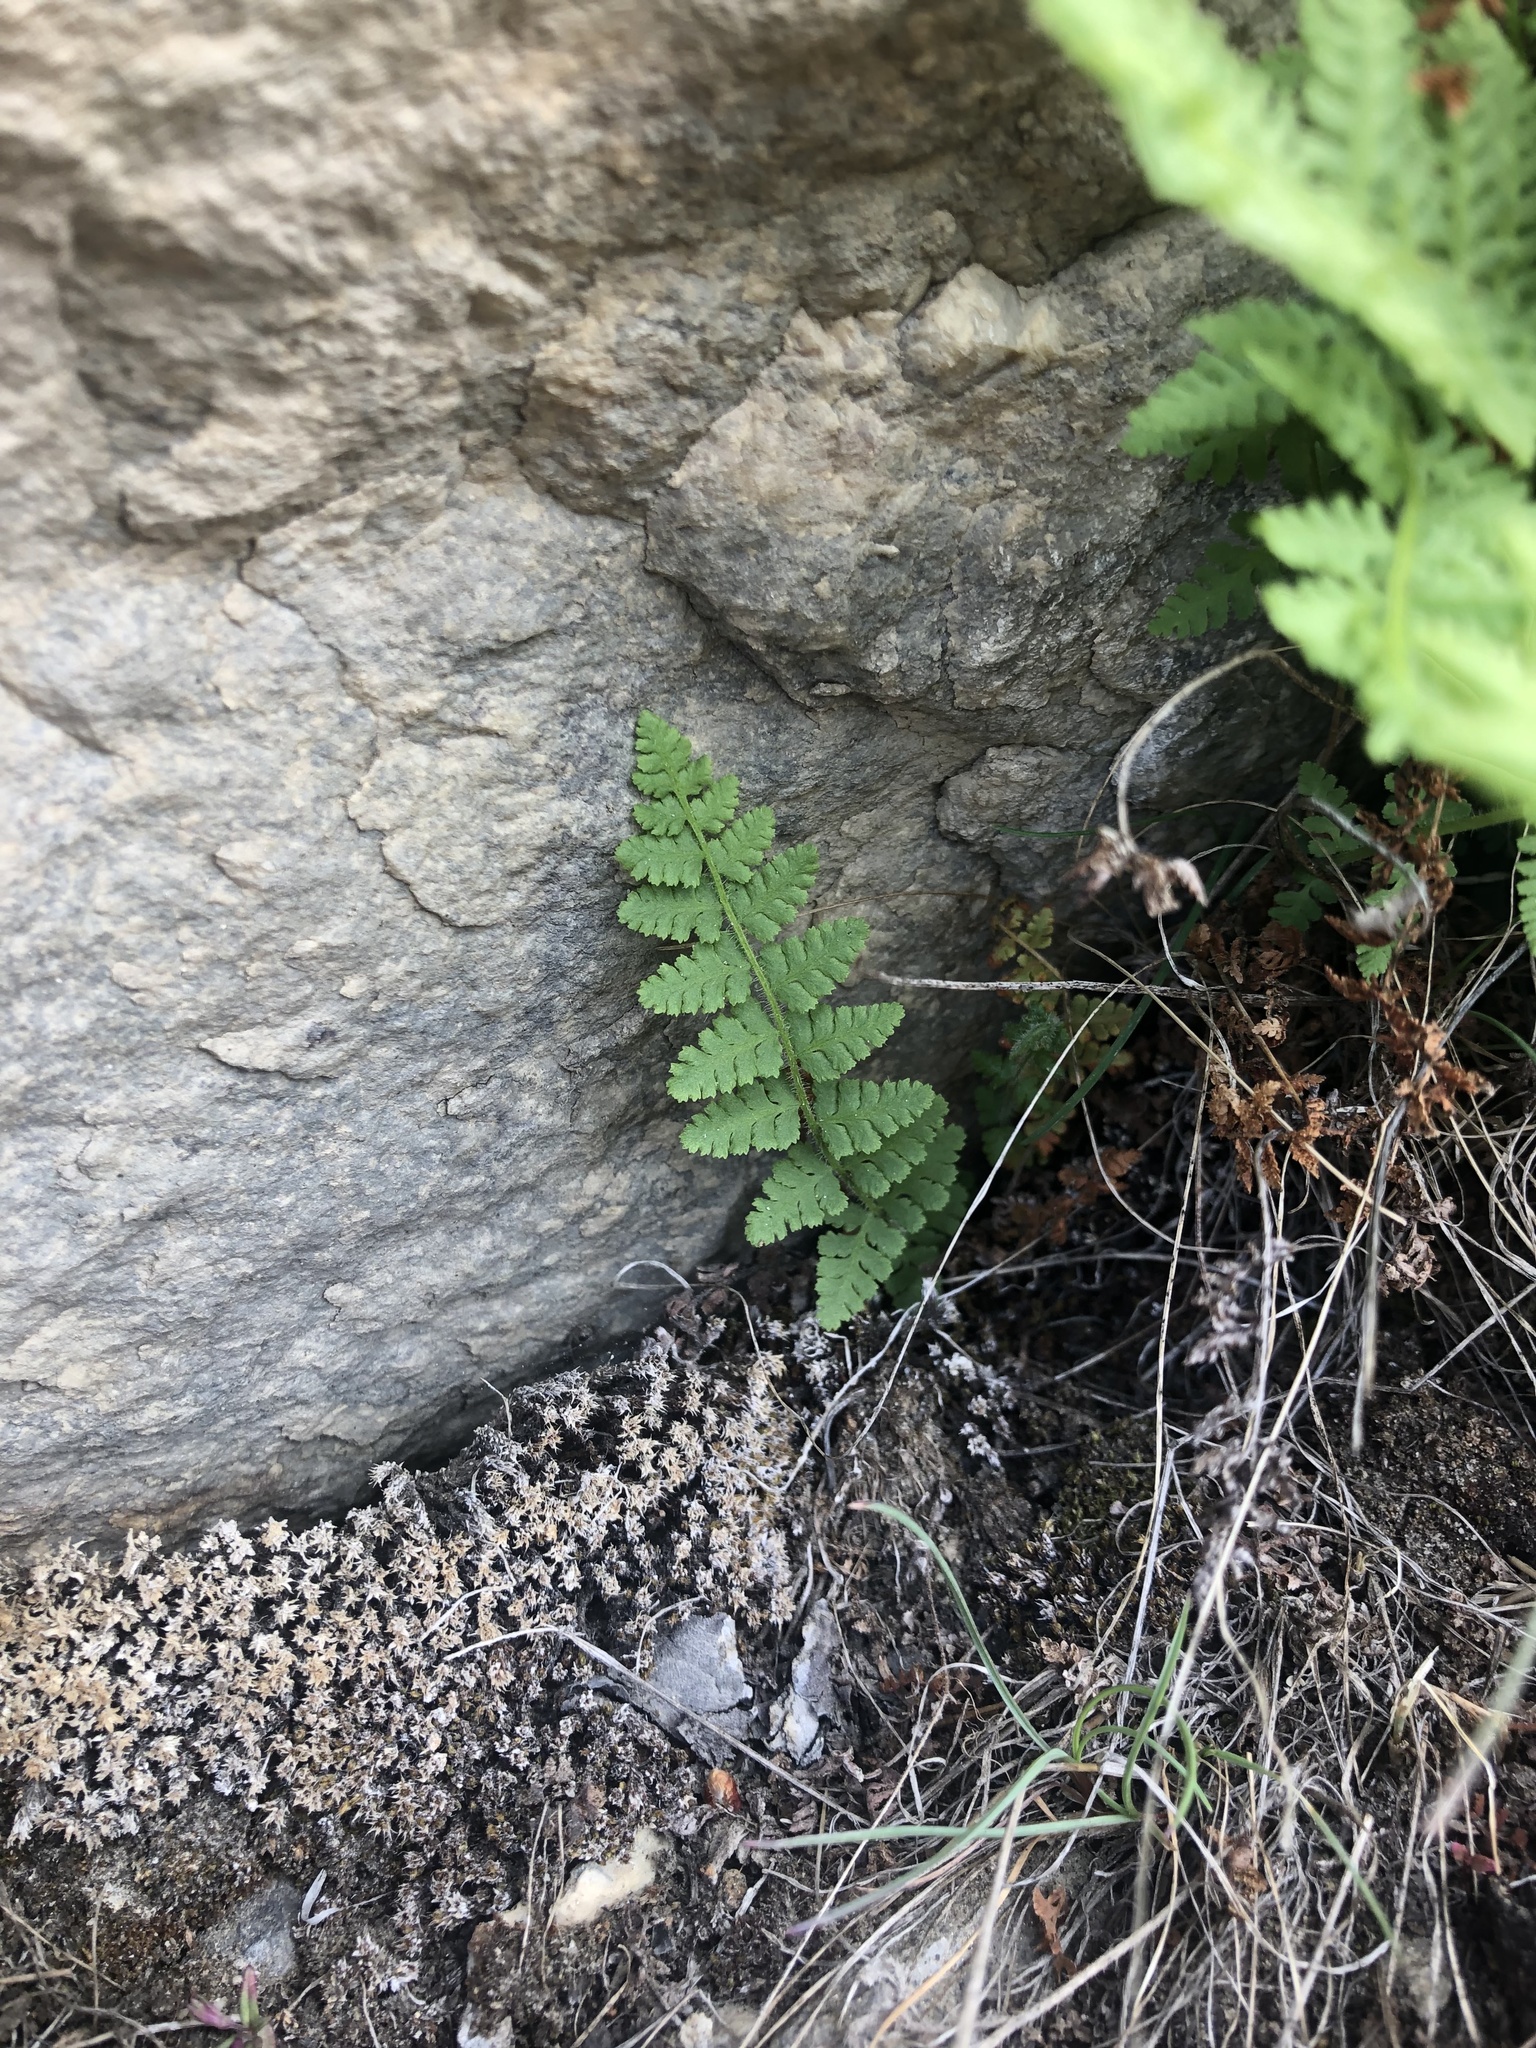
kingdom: Plantae
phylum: Tracheophyta
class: Polypodiopsida
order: Polypodiales
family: Woodsiaceae
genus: Physematium
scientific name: Physematium scopulinum
